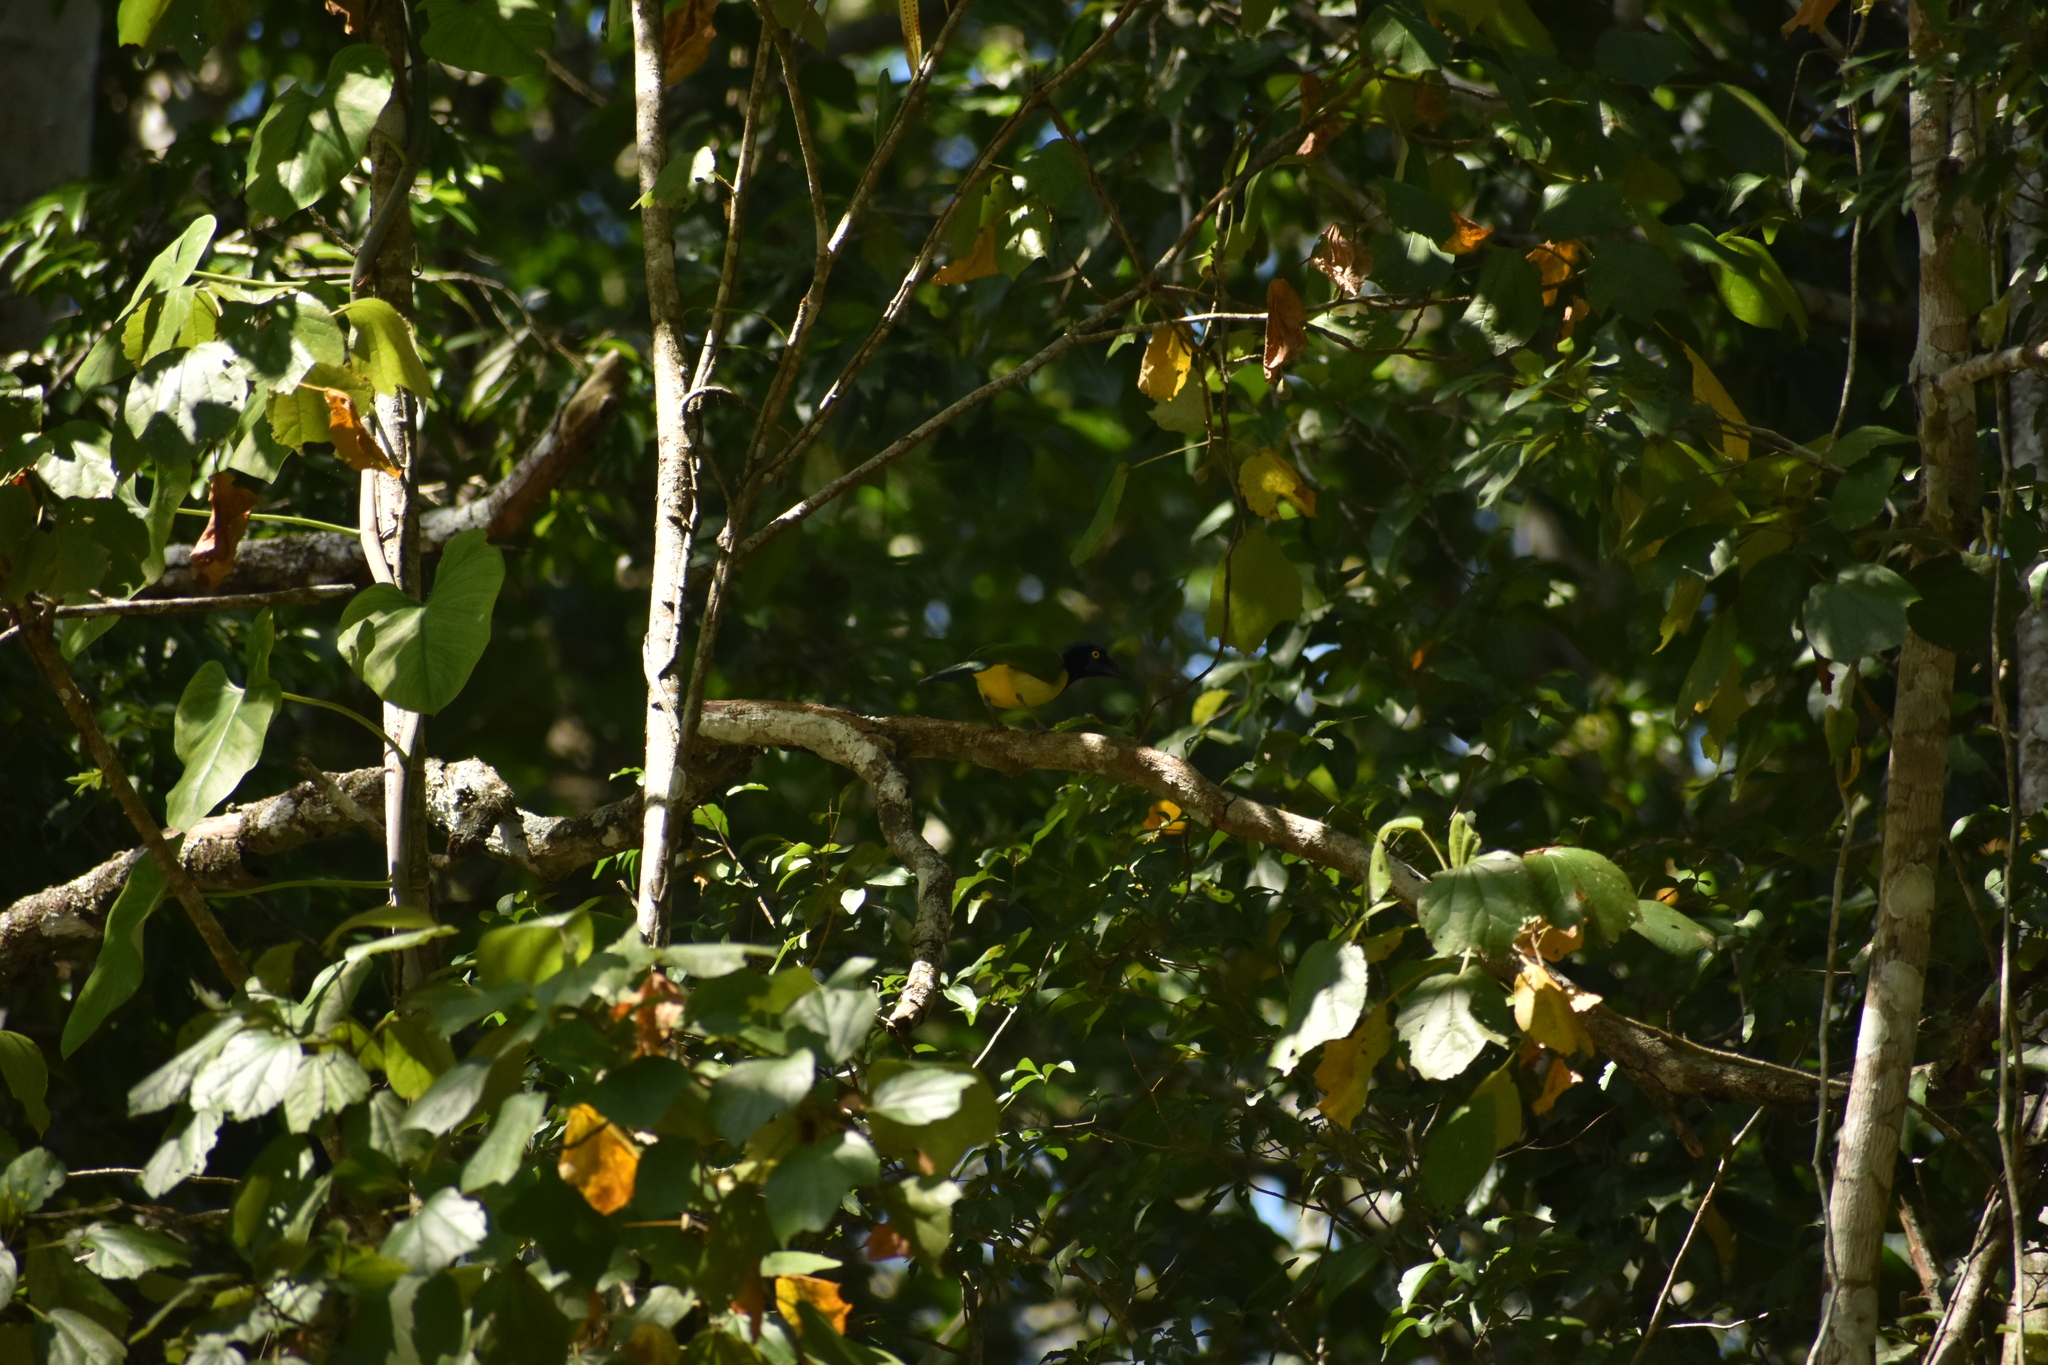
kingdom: Animalia
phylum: Chordata
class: Aves
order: Passeriformes
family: Corvidae
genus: Cyanocorax
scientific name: Cyanocorax yncas
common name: Green jay
